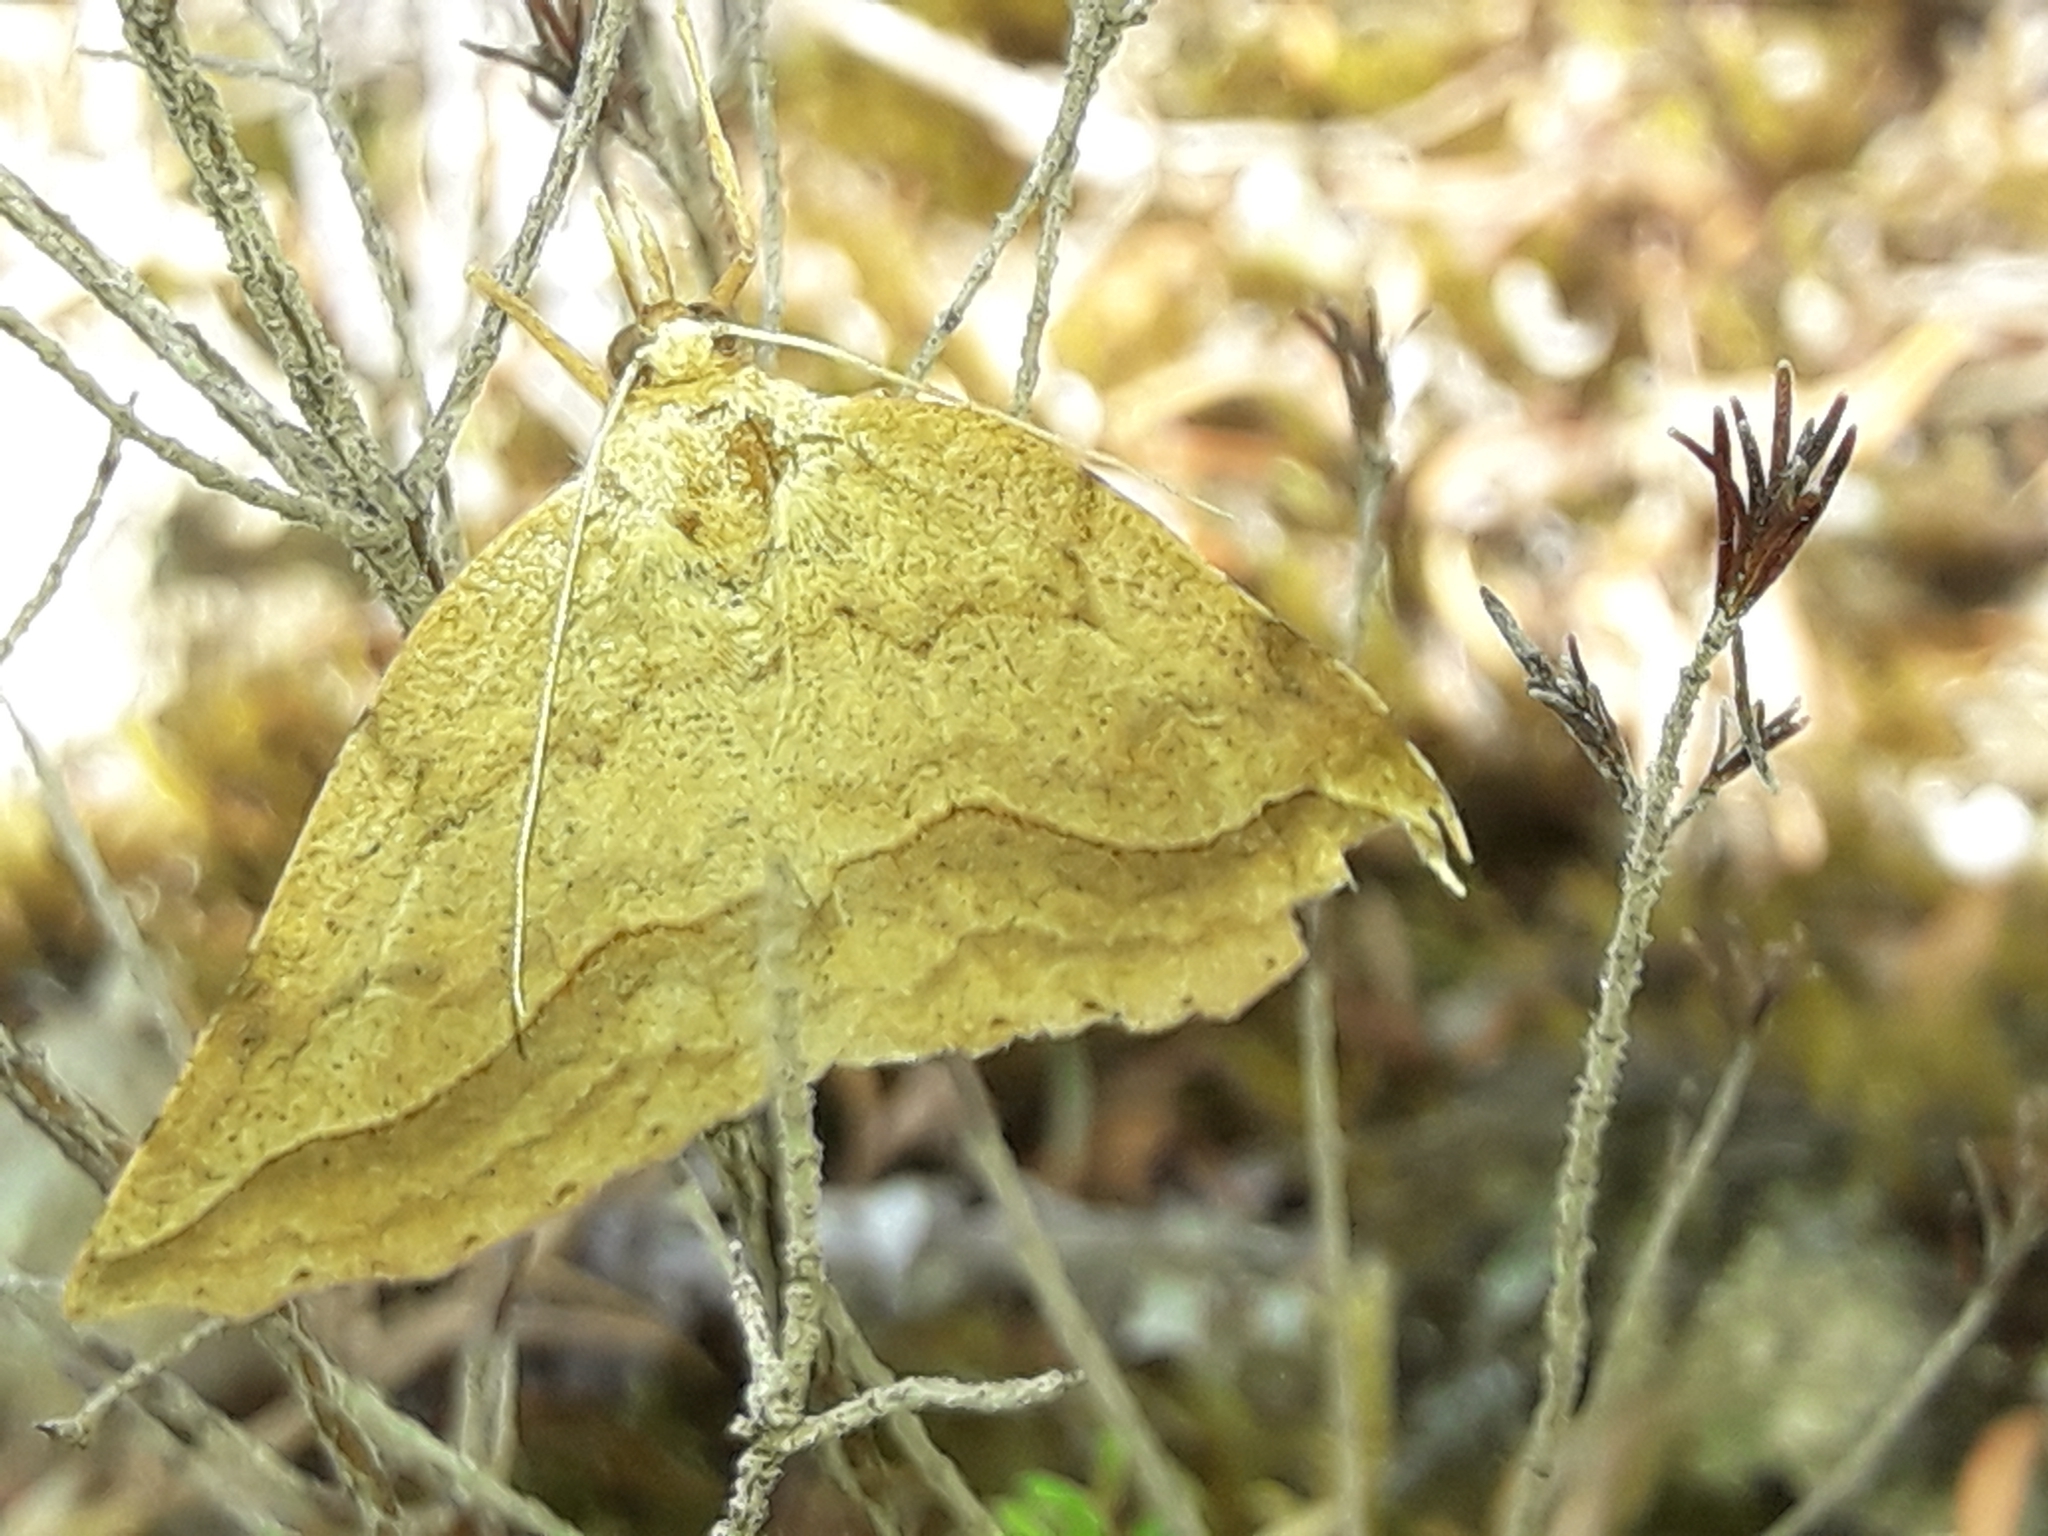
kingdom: Animalia
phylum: Arthropoda
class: Insecta
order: Lepidoptera
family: Geometridae
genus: Ischalis
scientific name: Ischalis variabilis
